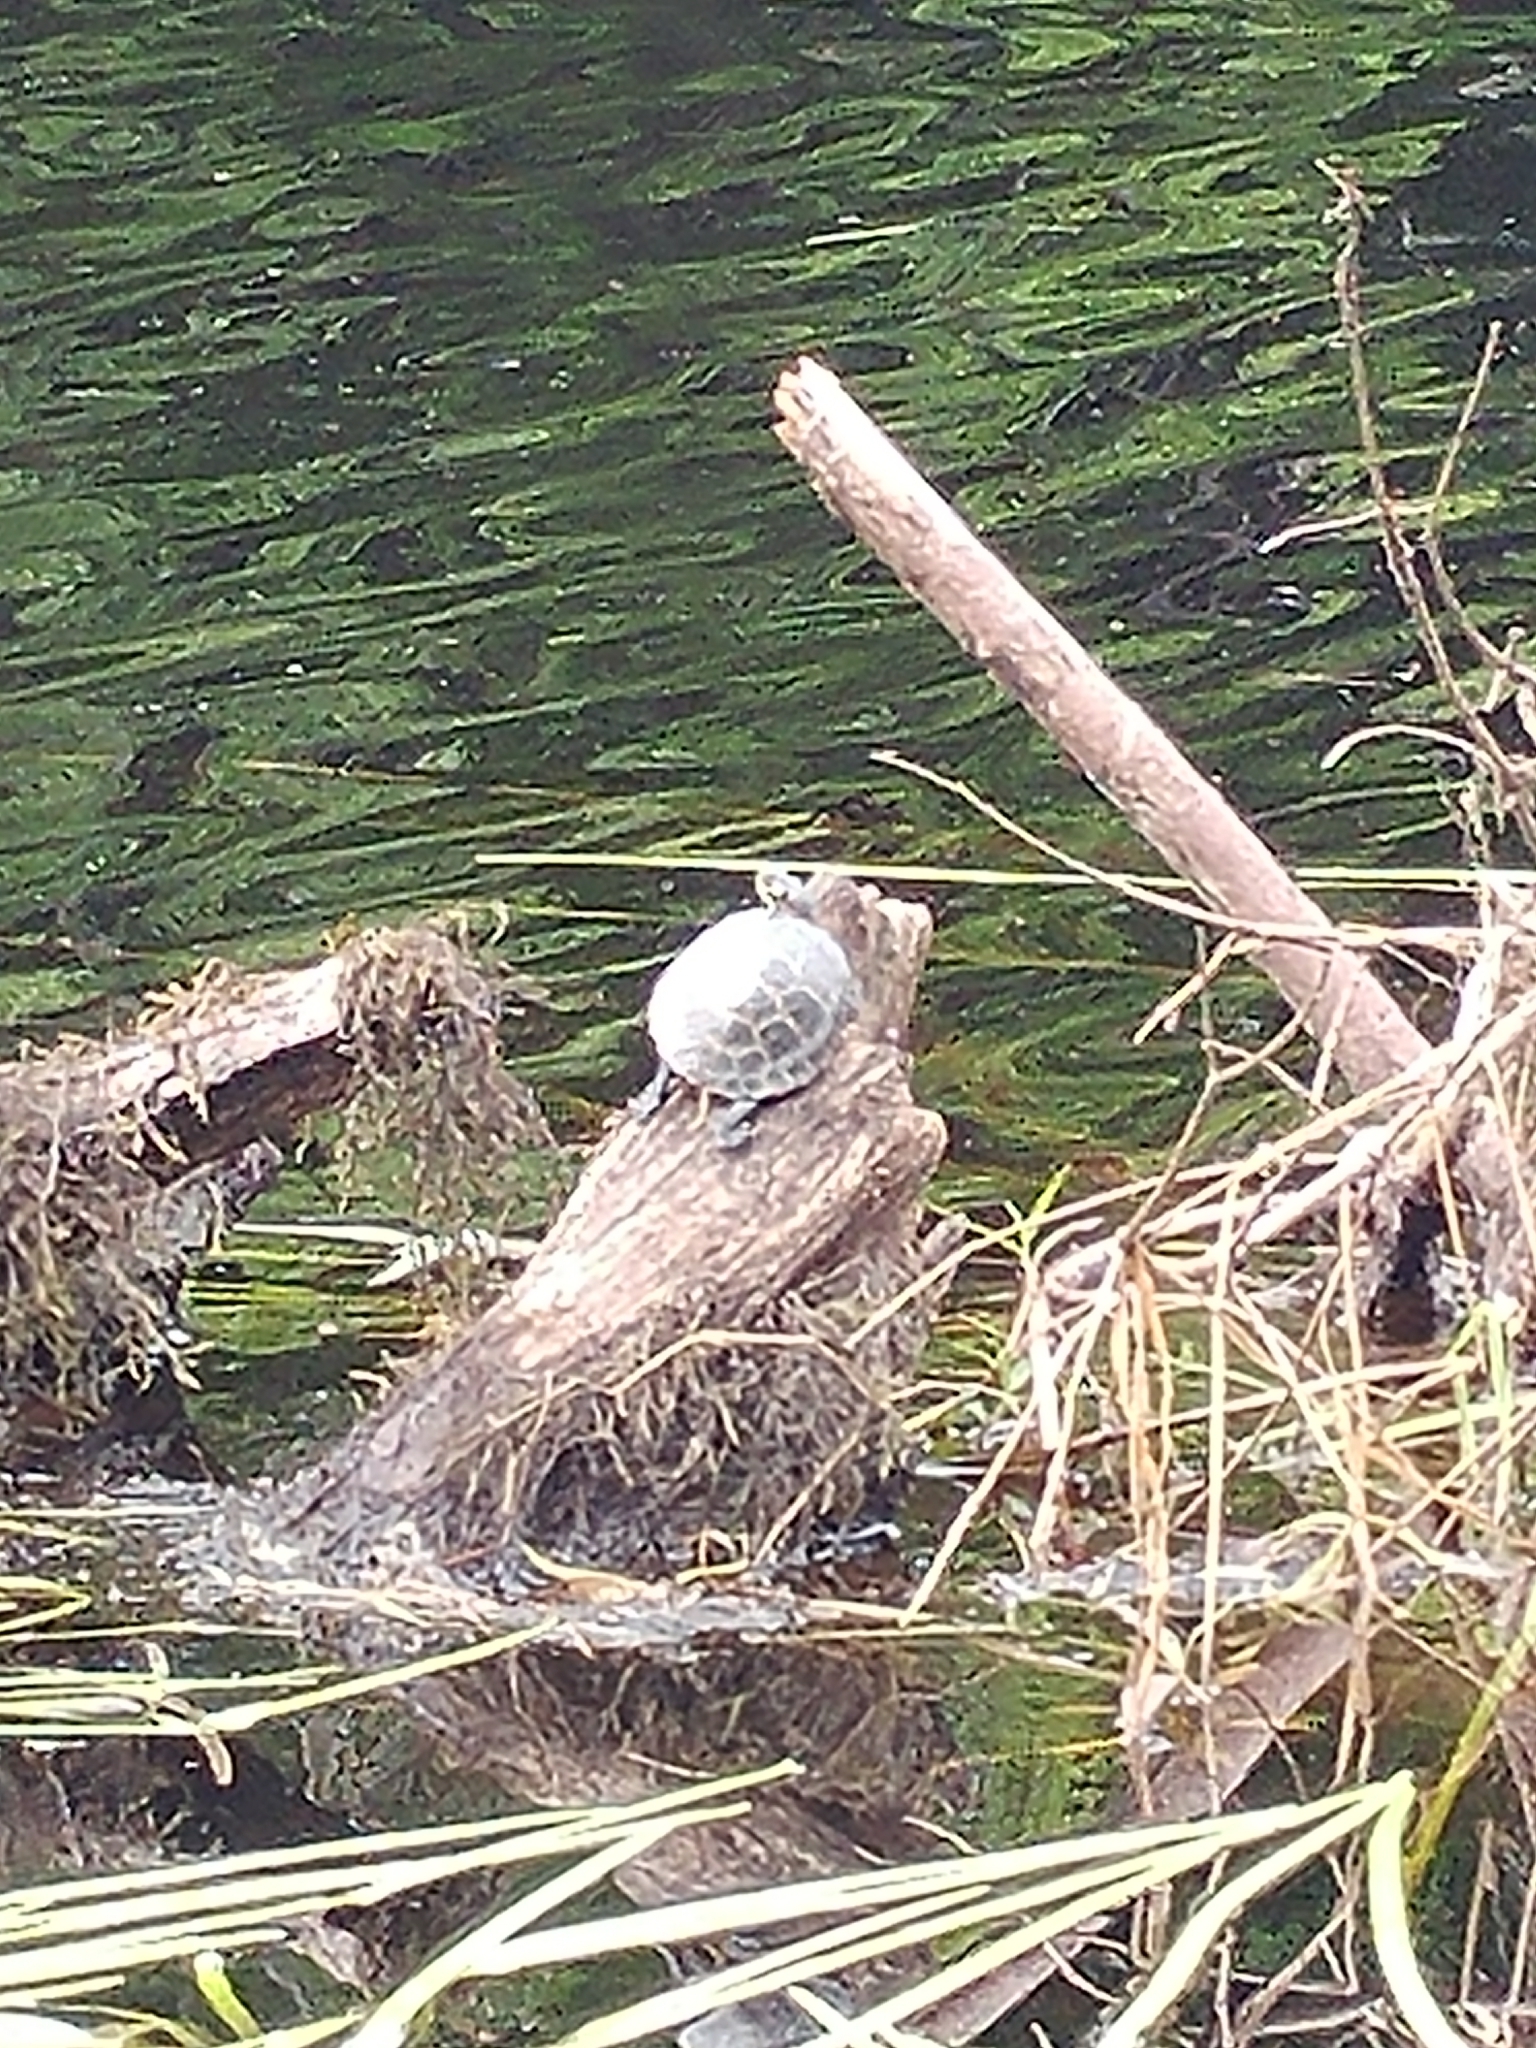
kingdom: Animalia
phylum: Chordata
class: Testudines
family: Emydidae
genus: Chrysemys
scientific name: Chrysemys picta
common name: Painted turtle
